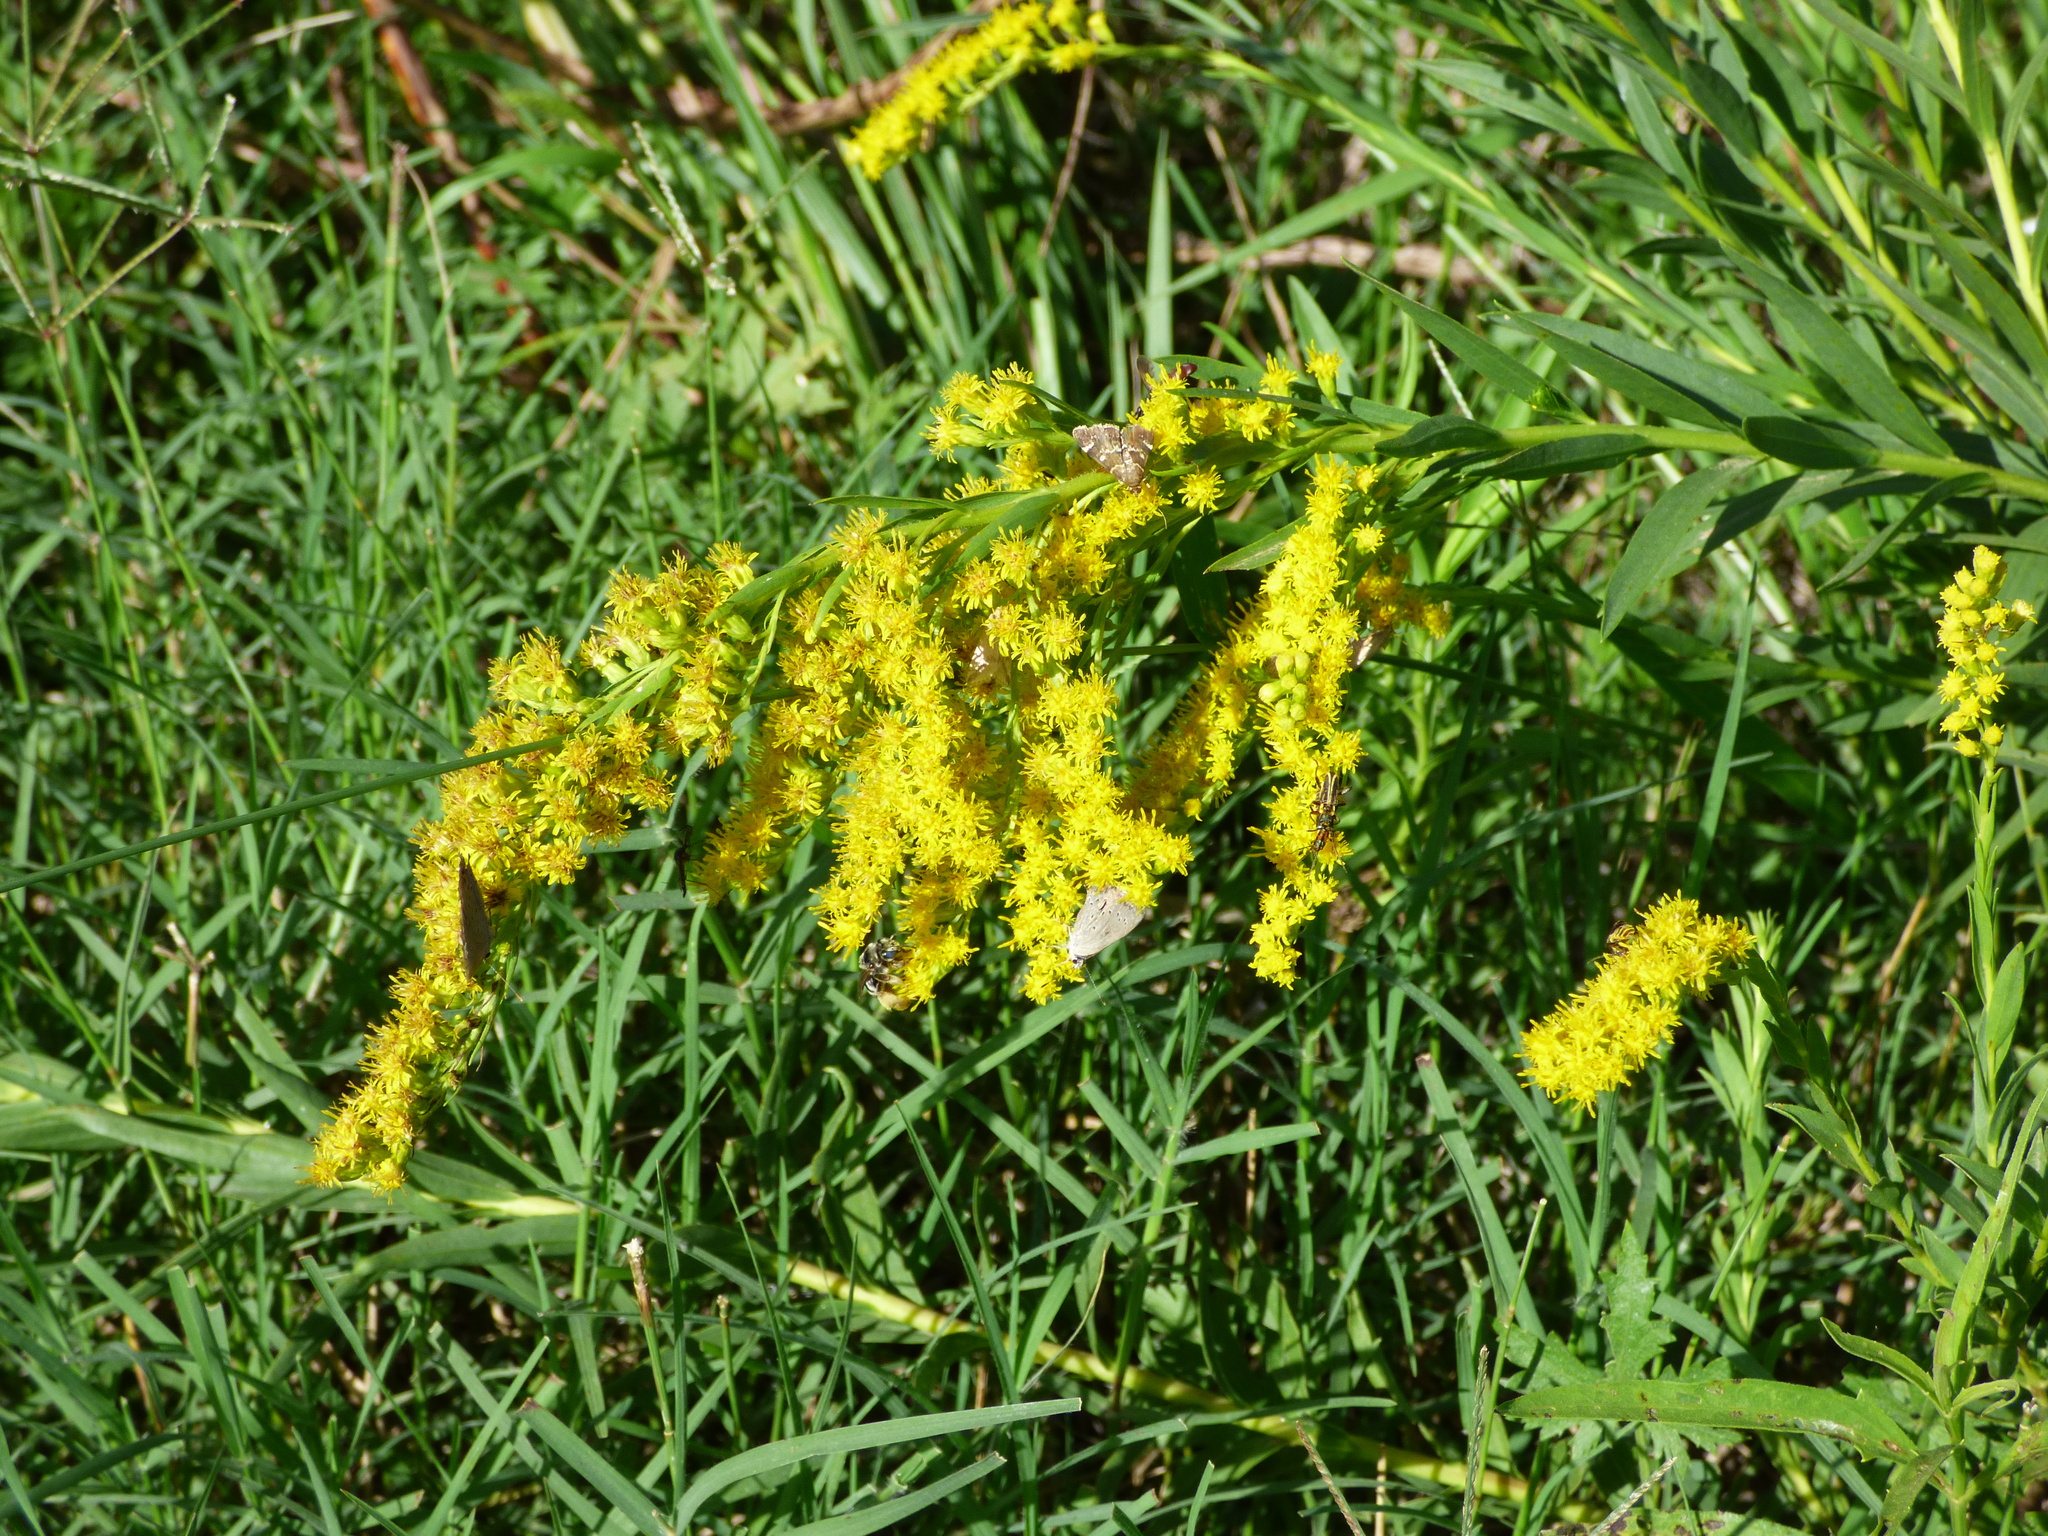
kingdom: Plantae
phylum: Tracheophyta
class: Magnoliopsida
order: Asterales
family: Asteraceae
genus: Solidago
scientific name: Solidago chilensis
